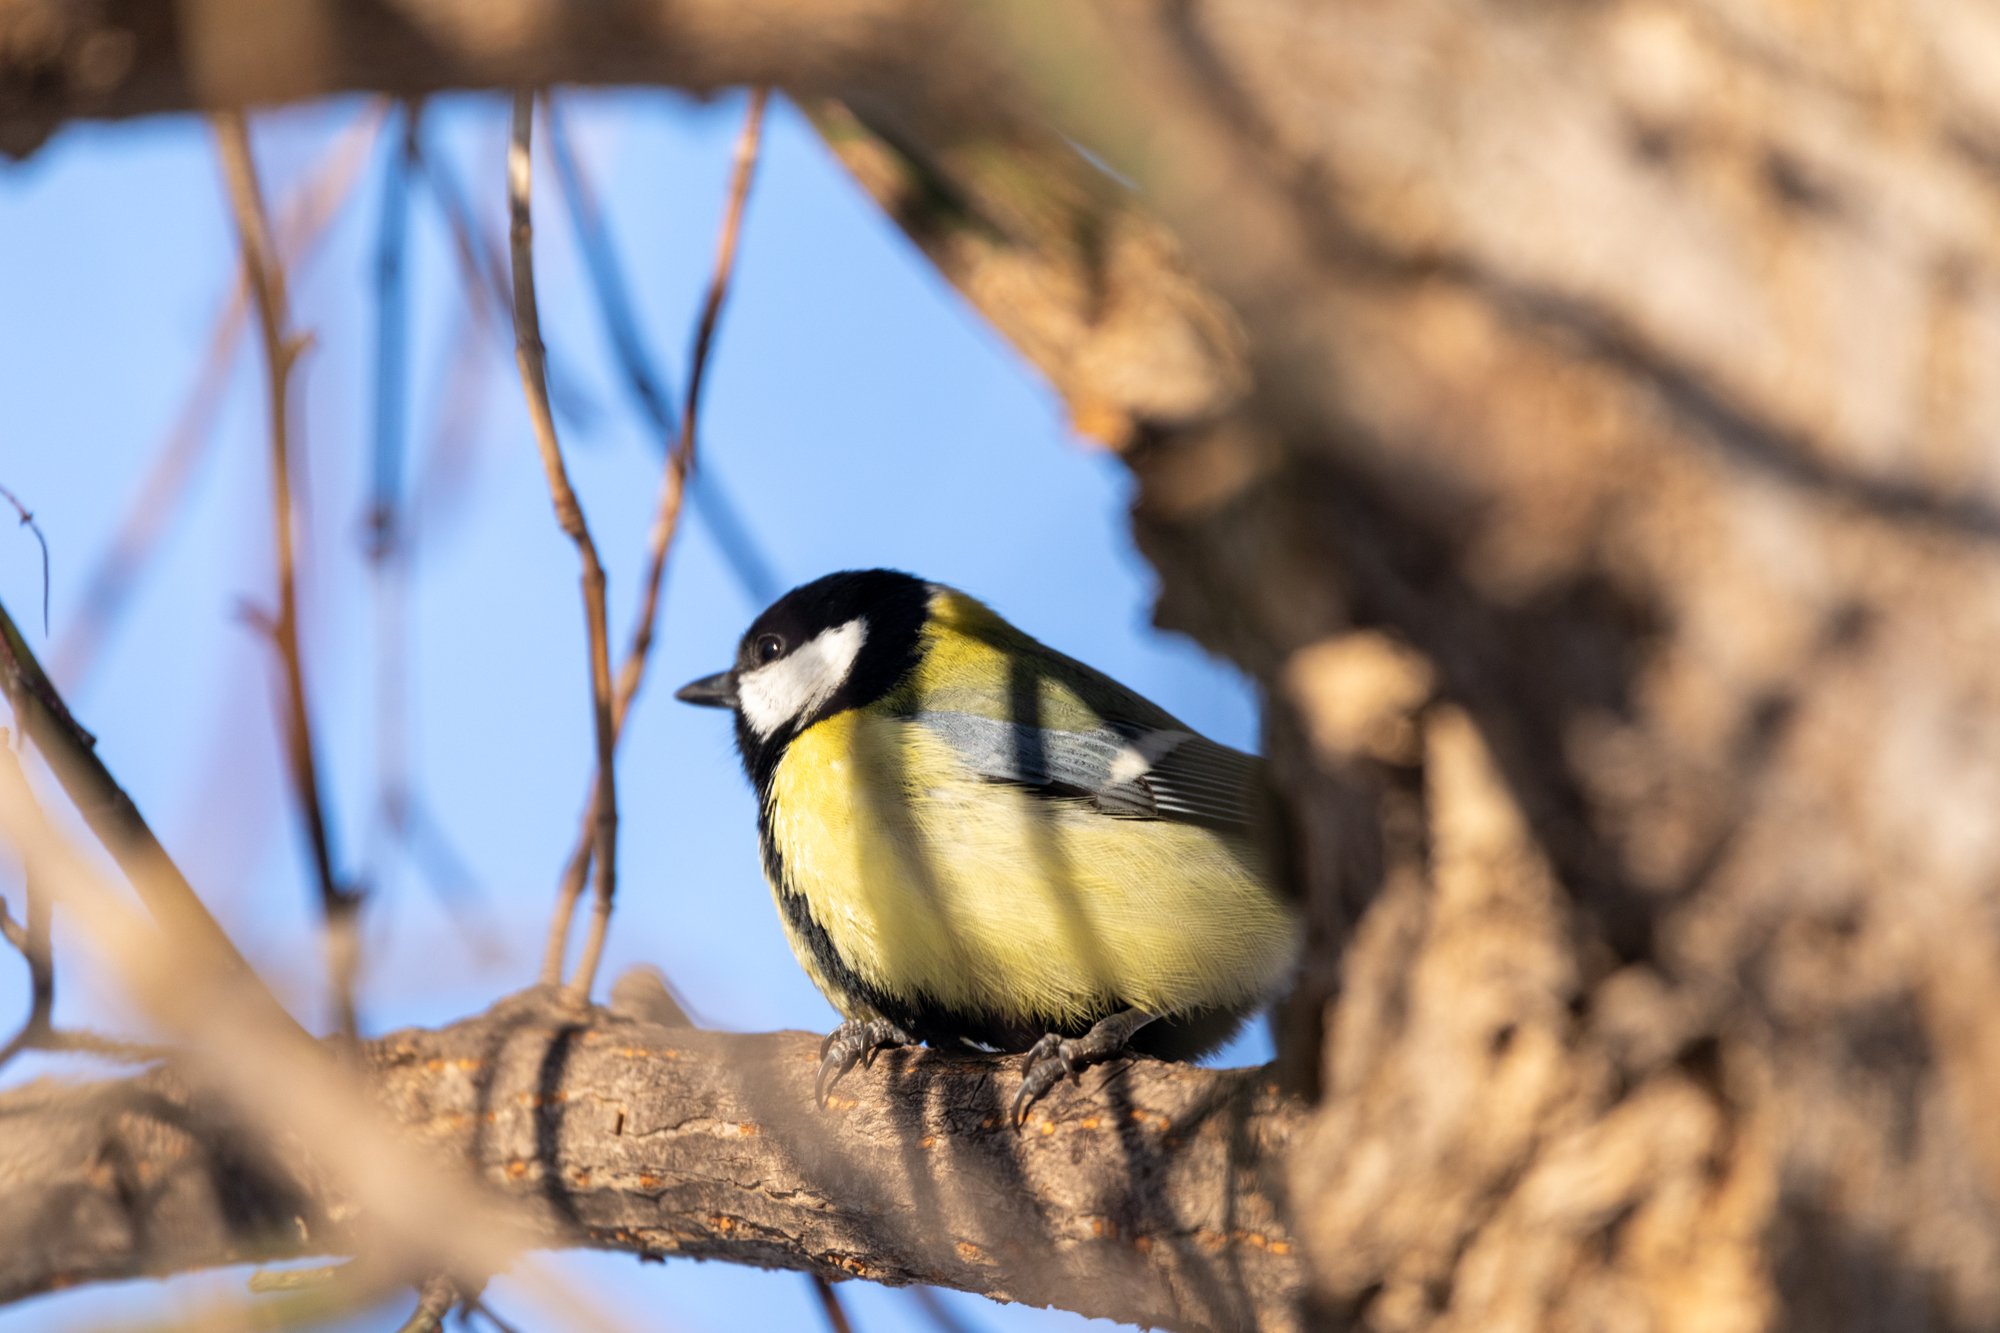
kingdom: Animalia
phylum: Chordata
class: Aves
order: Passeriformes
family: Paridae
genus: Parus
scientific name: Parus major
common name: Great tit
